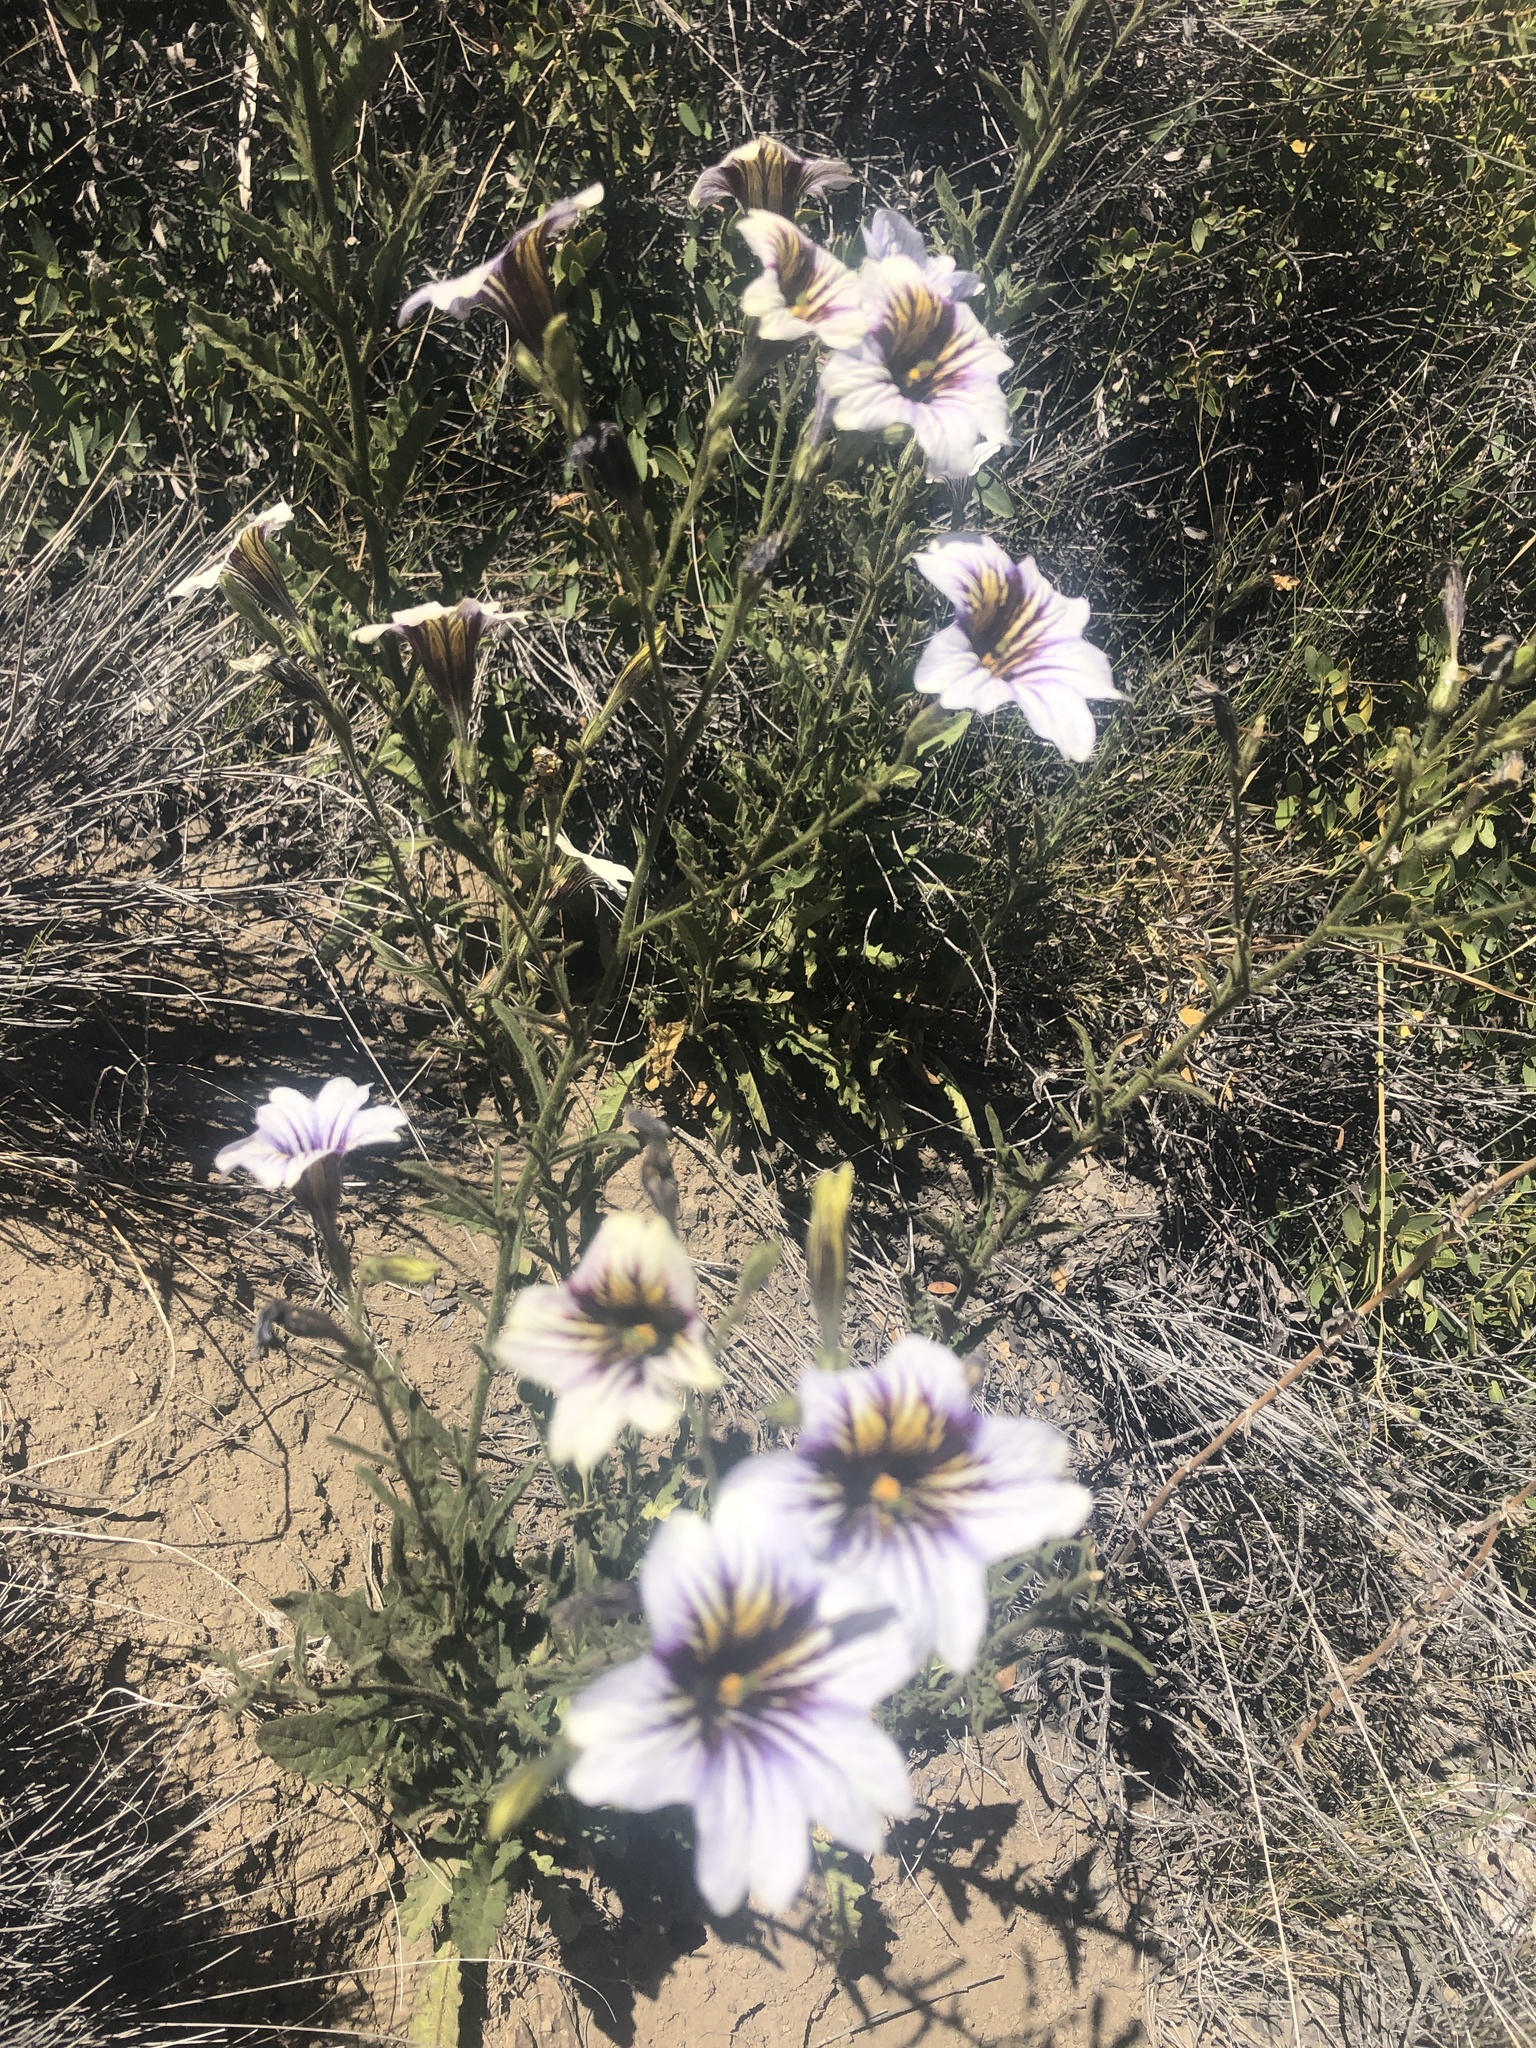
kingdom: Plantae
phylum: Tracheophyta
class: Magnoliopsida
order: Solanales
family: Solanaceae
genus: Salpiglossis
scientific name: Salpiglossis sinuata
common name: Painted-tongue
